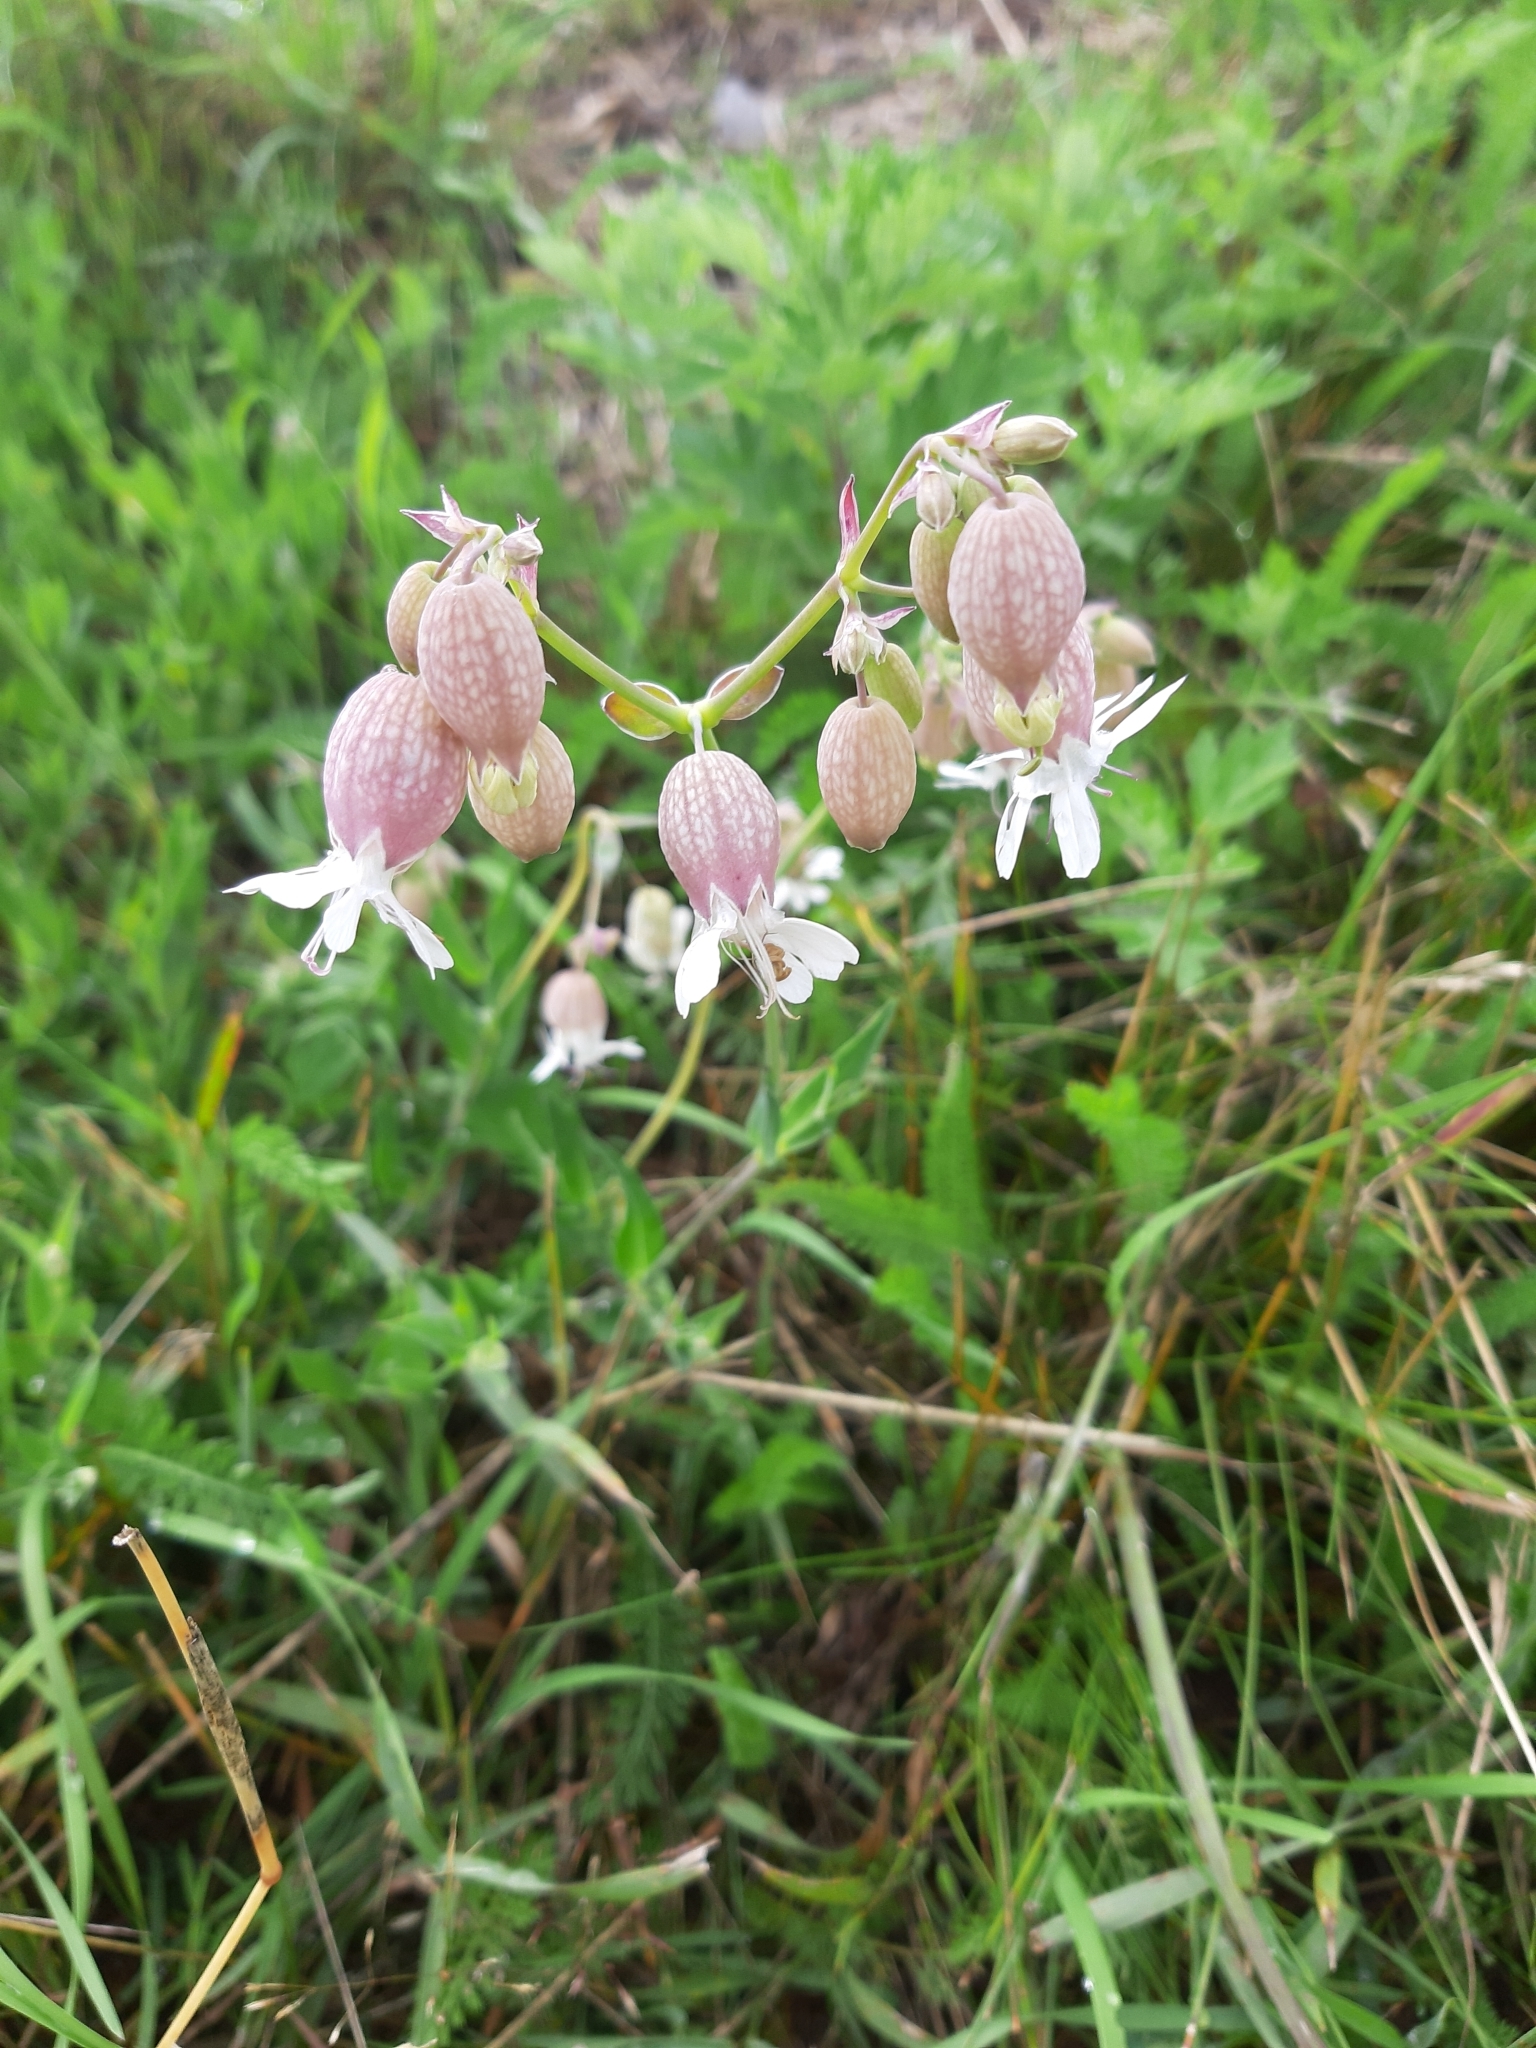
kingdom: Plantae
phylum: Tracheophyta
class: Magnoliopsida
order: Caryophyllales
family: Caryophyllaceae
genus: Silene
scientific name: Silene vulgaris
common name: Bladder campion
